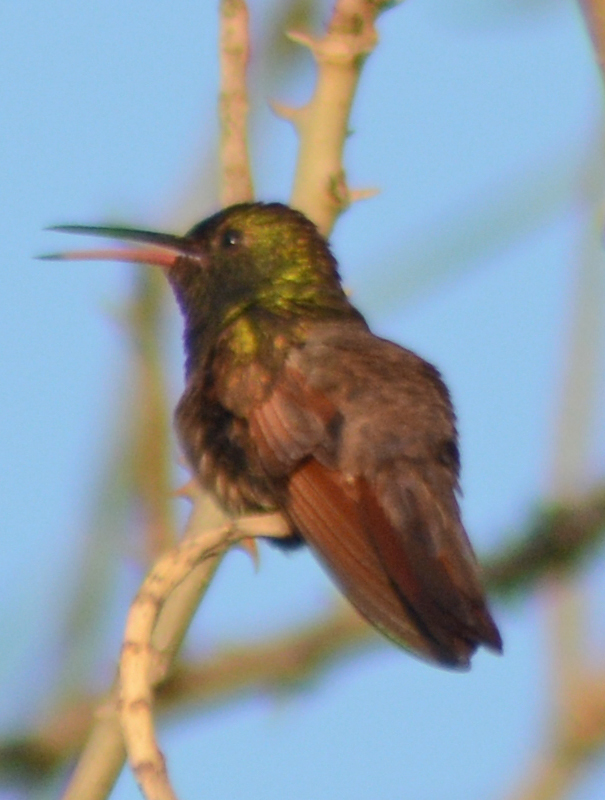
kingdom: Animalia
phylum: Chordata
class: Aves
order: Apodiformes
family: Trochilidae
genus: Saucerottia
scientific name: Saucerottia beryllina
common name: Berylline hummingbird
